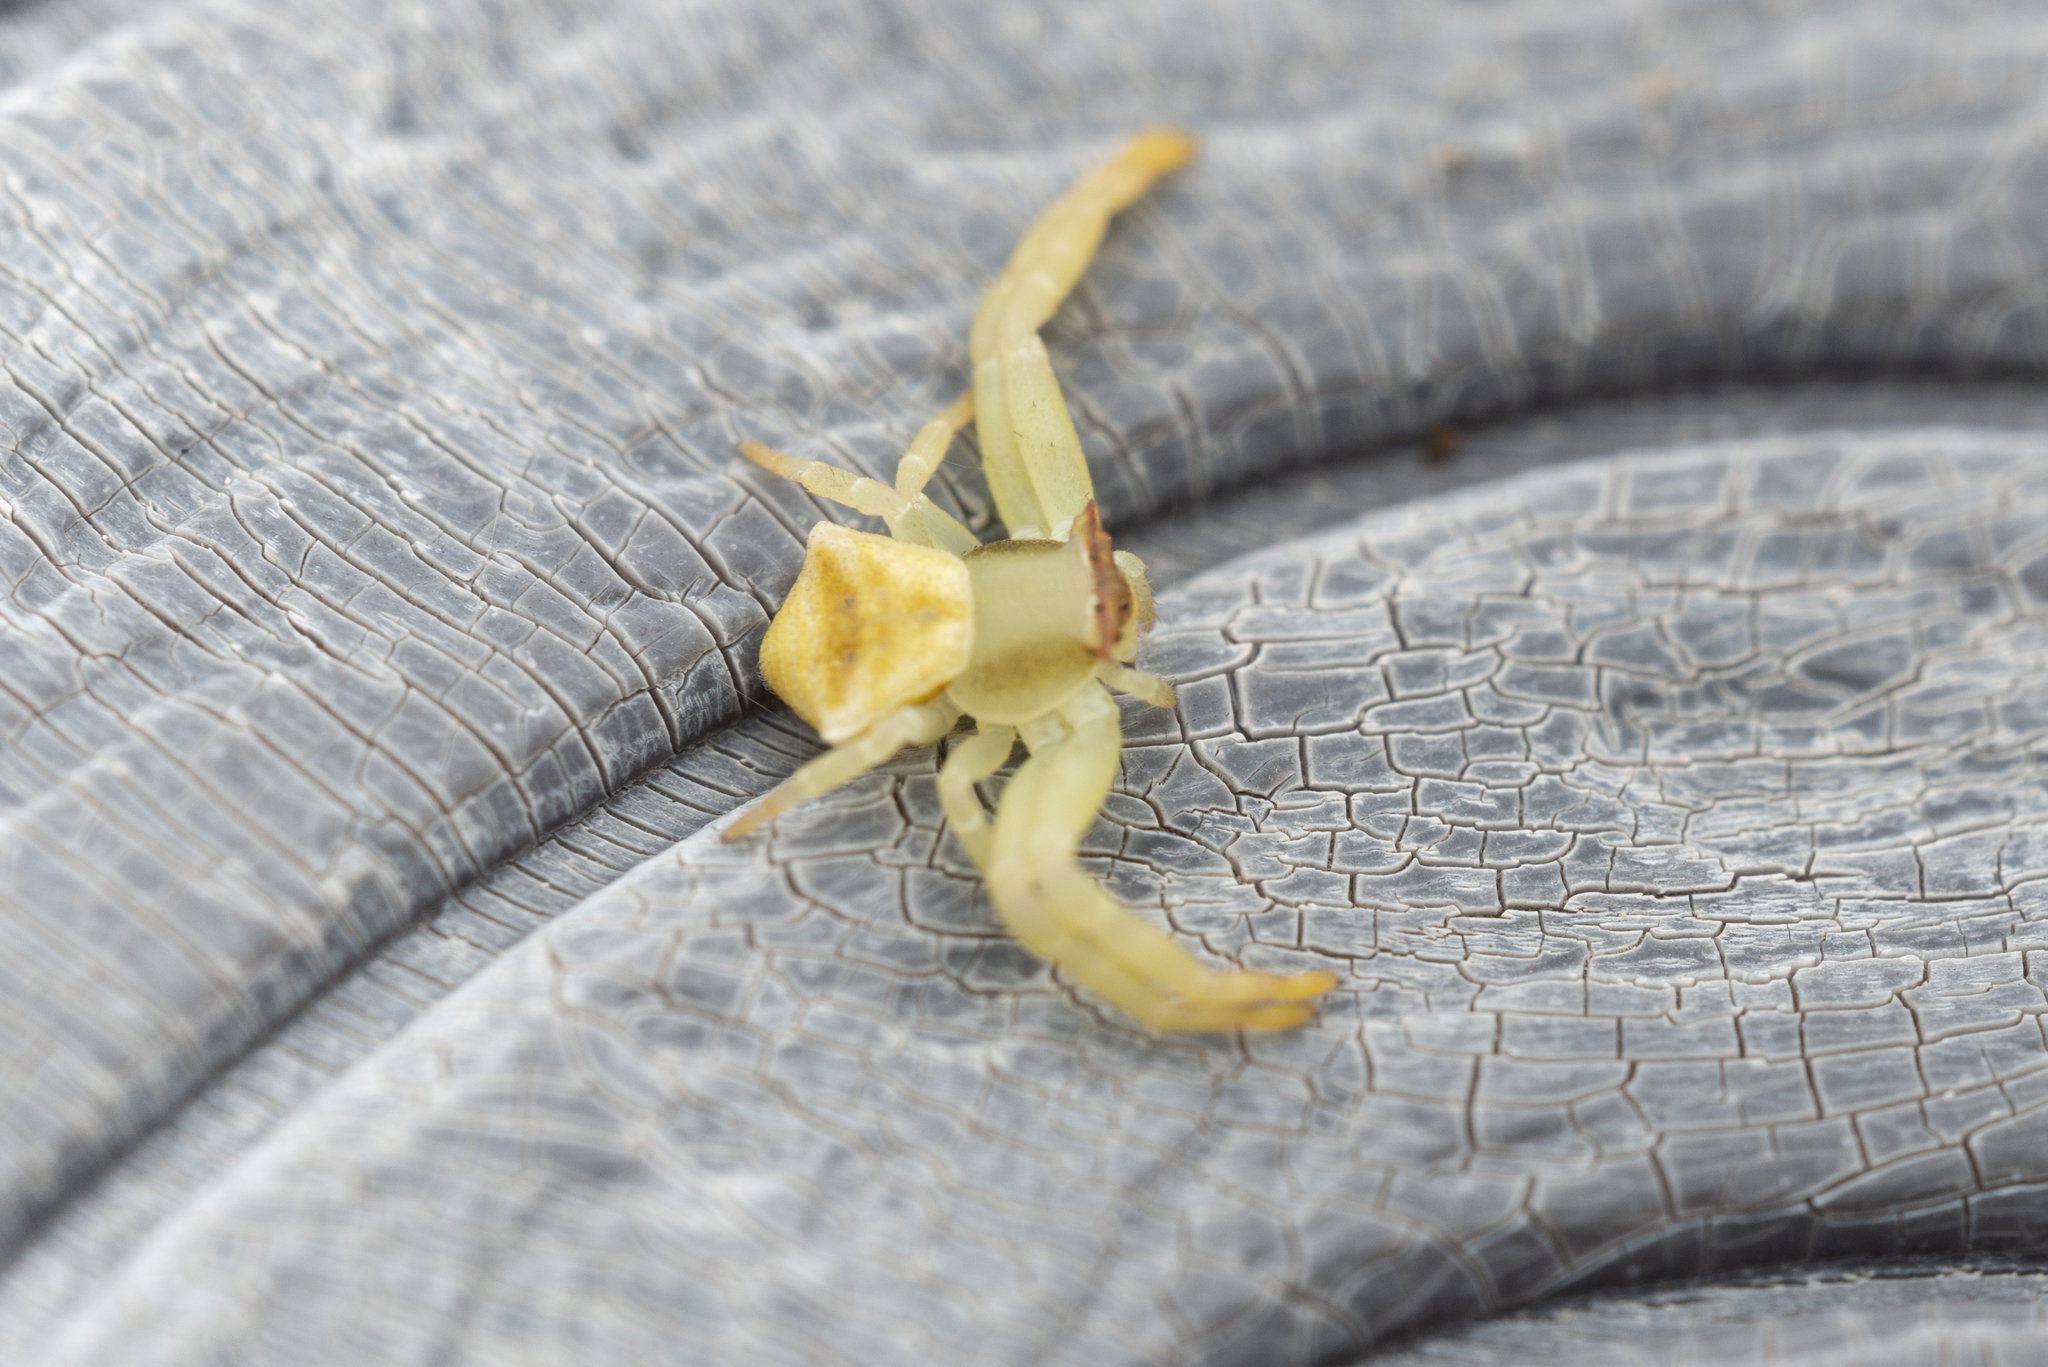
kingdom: Animalia
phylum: Arthropoda
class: Arachnida
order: Araneae
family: Thomisidae
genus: Thomisus
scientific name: Thomisus labefactus
